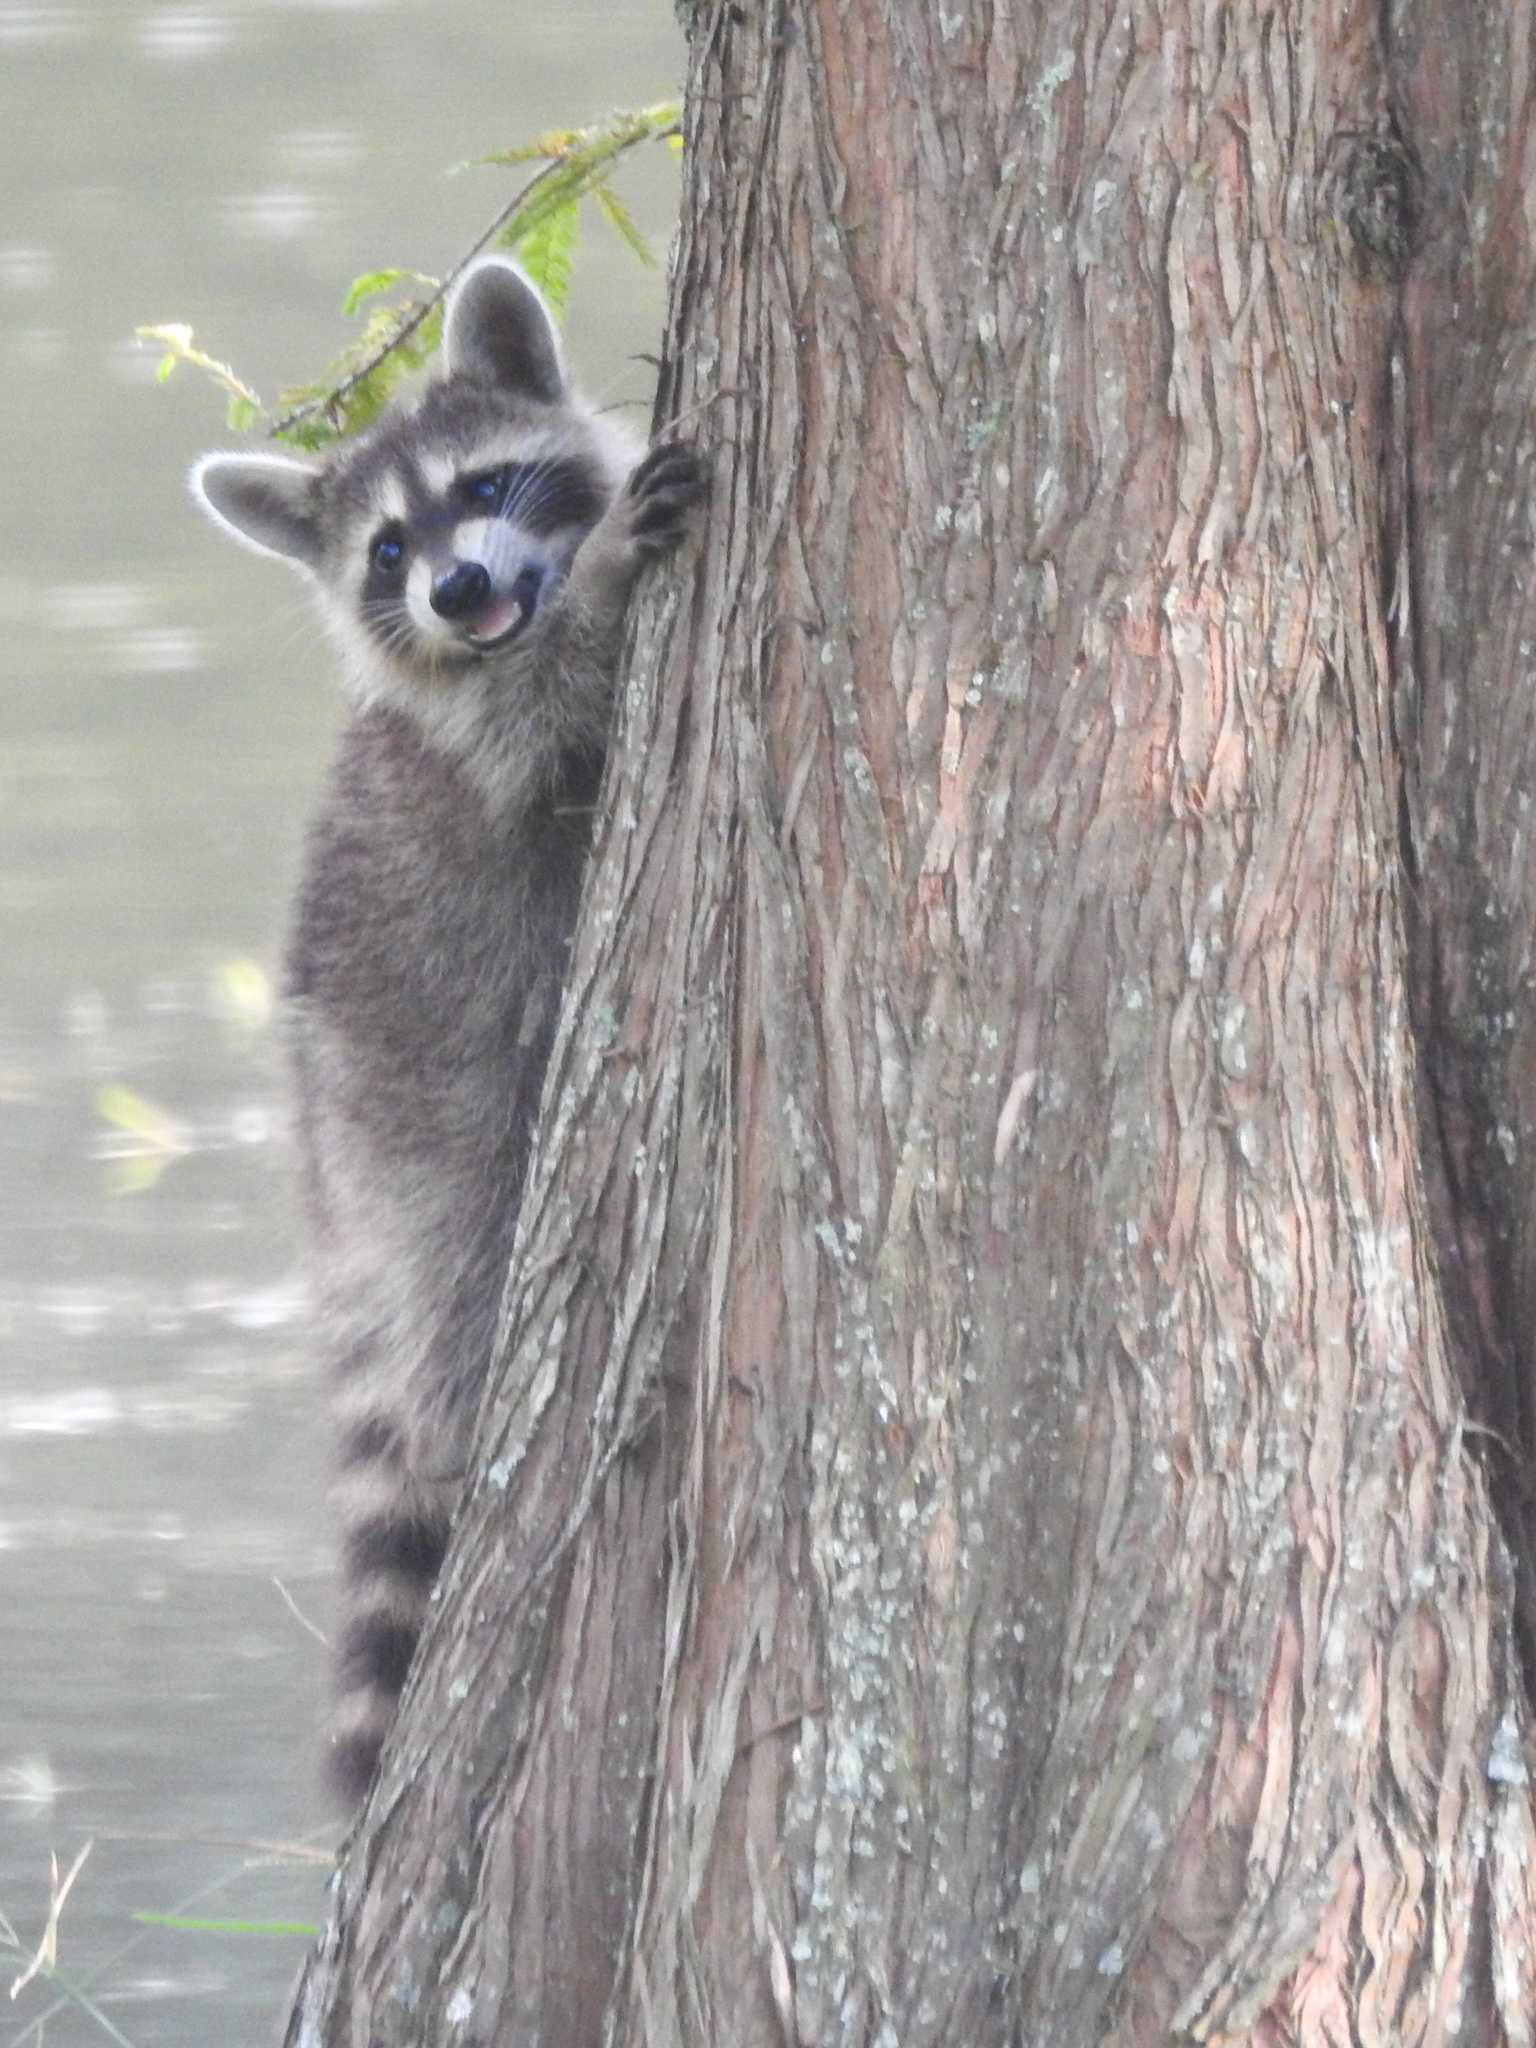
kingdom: Animalia
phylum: Chordata
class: Mammalia
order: Carnivora
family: Procyonidae
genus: Procyon
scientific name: Procyon lotor
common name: Raccoon
